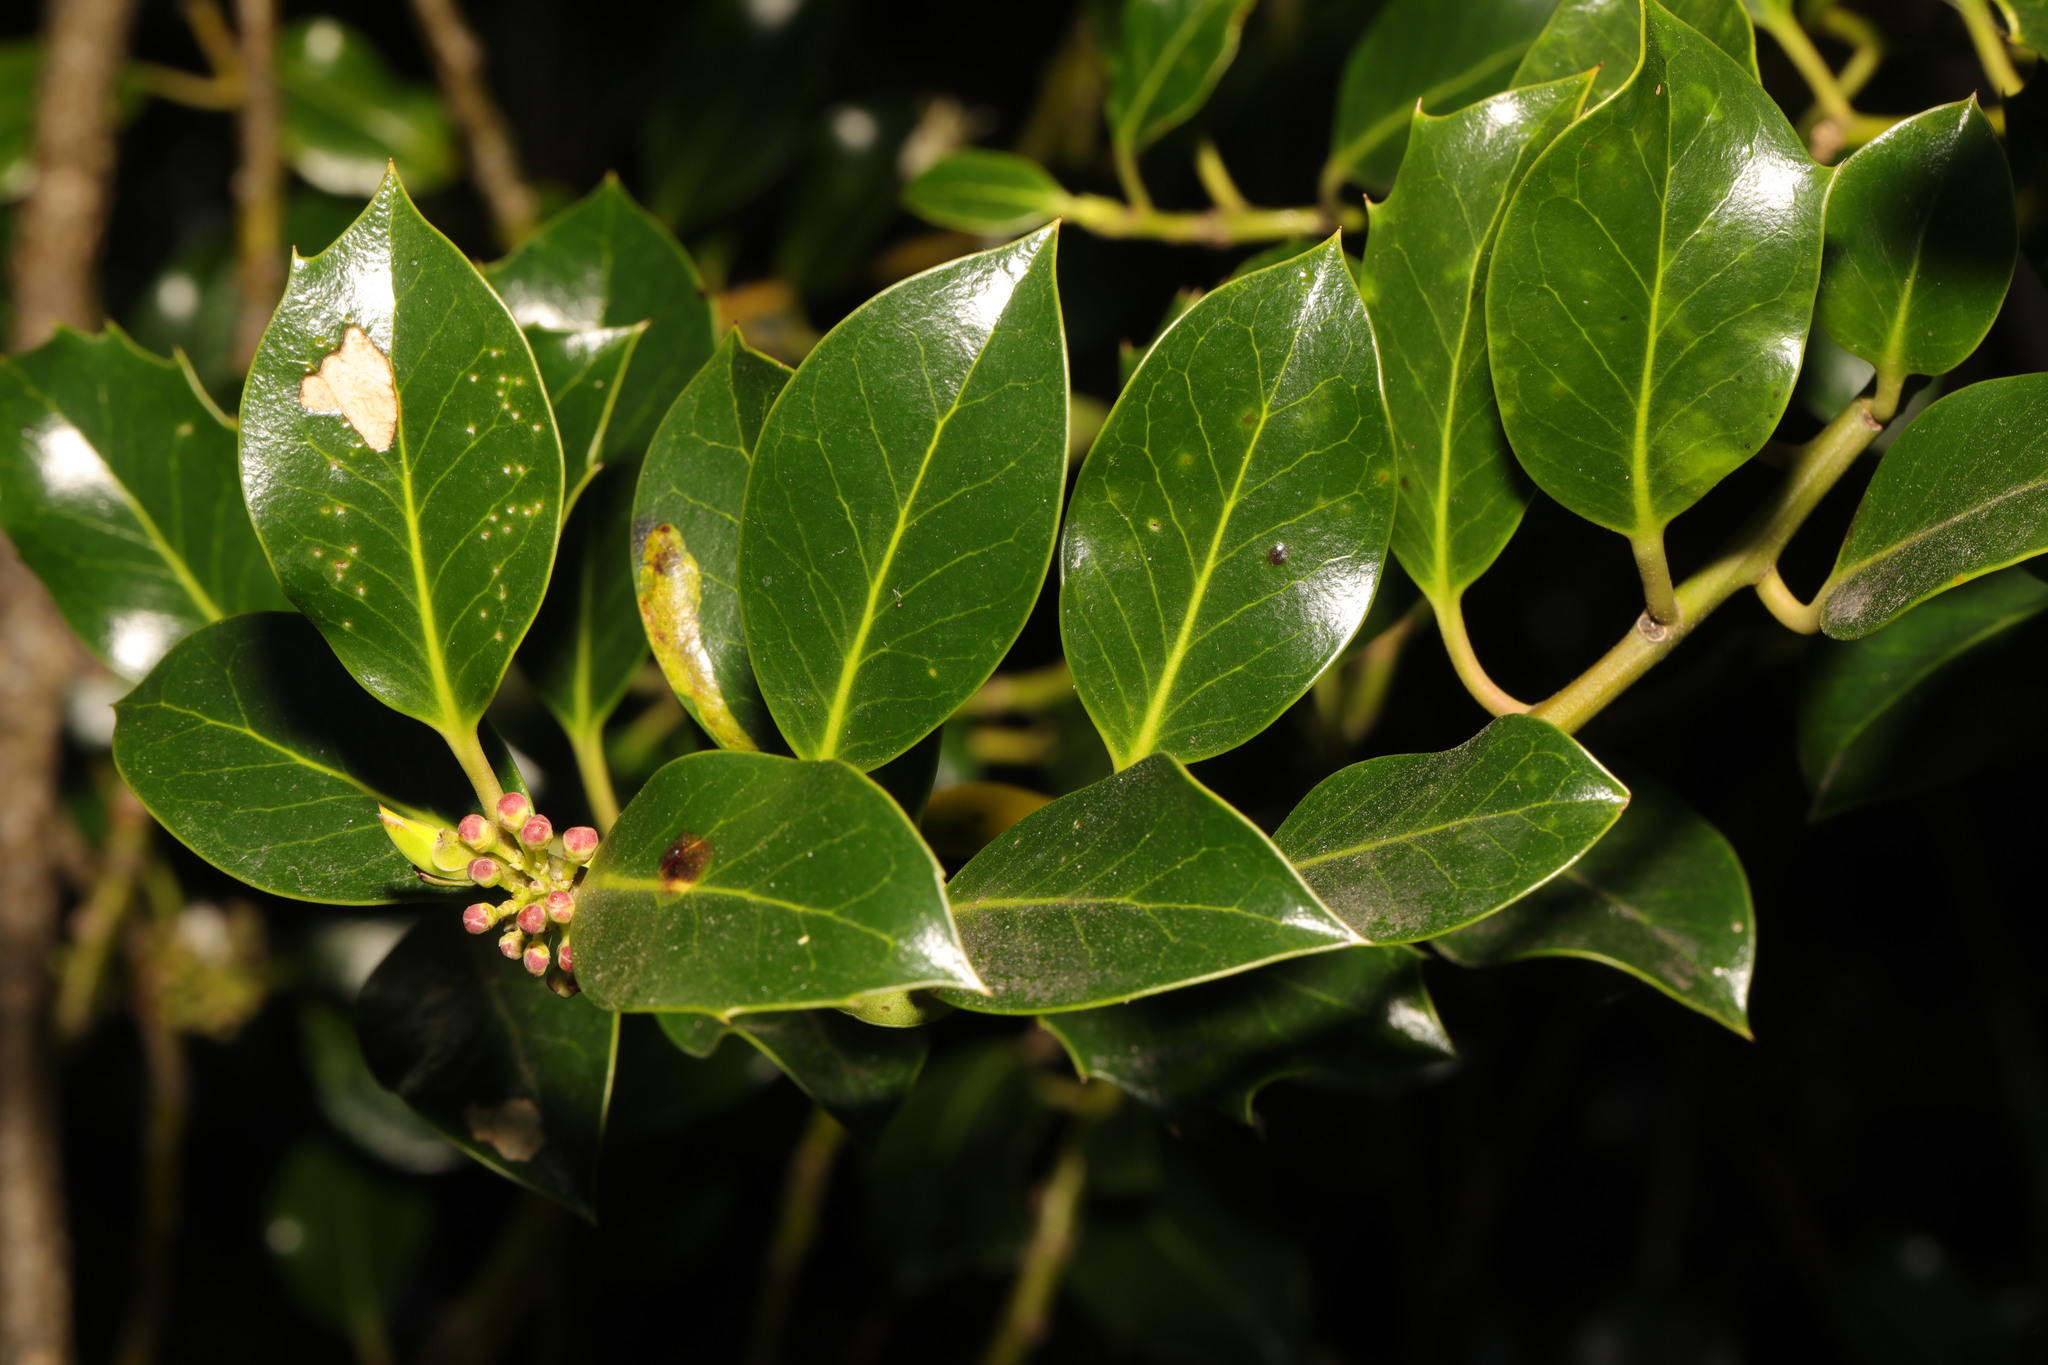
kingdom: Plantae
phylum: Tracheophyta
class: Magnoliopsida
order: Aquifoliales
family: Aquifoliaceae
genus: Ilex
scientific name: Ilex aquifolium
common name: English holly
